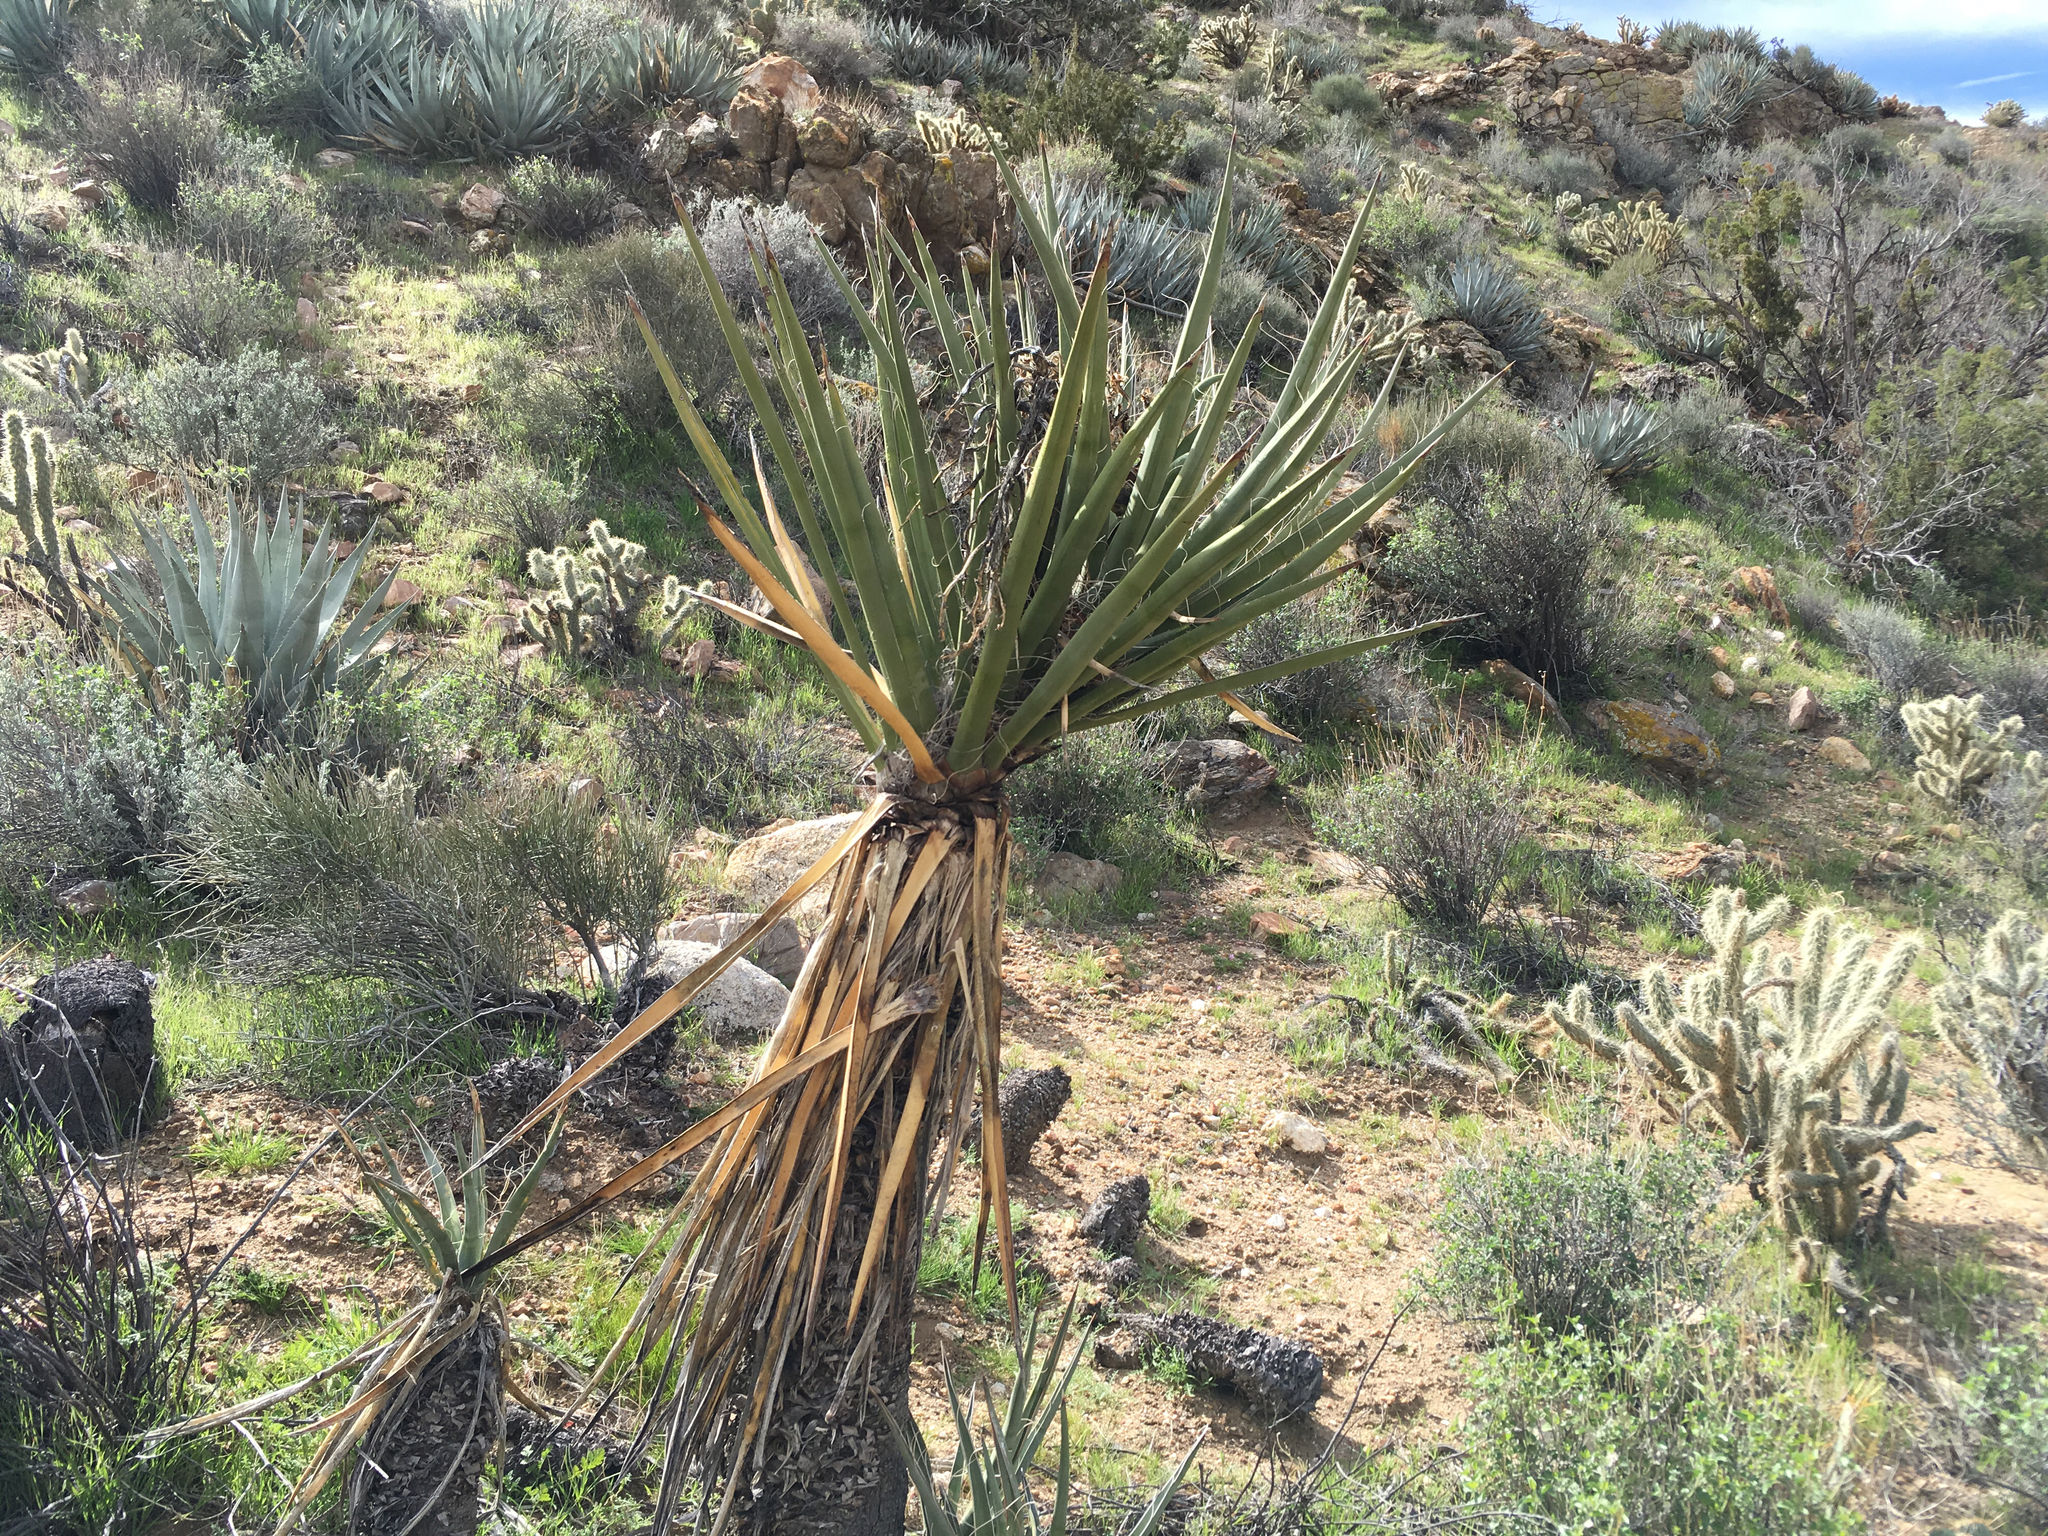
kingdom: Plantae
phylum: Tracheophyta
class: Liliopsida
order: Asparagales
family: Asparagaceae
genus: Yucca
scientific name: Yucca schidigera
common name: Mojave yucca
